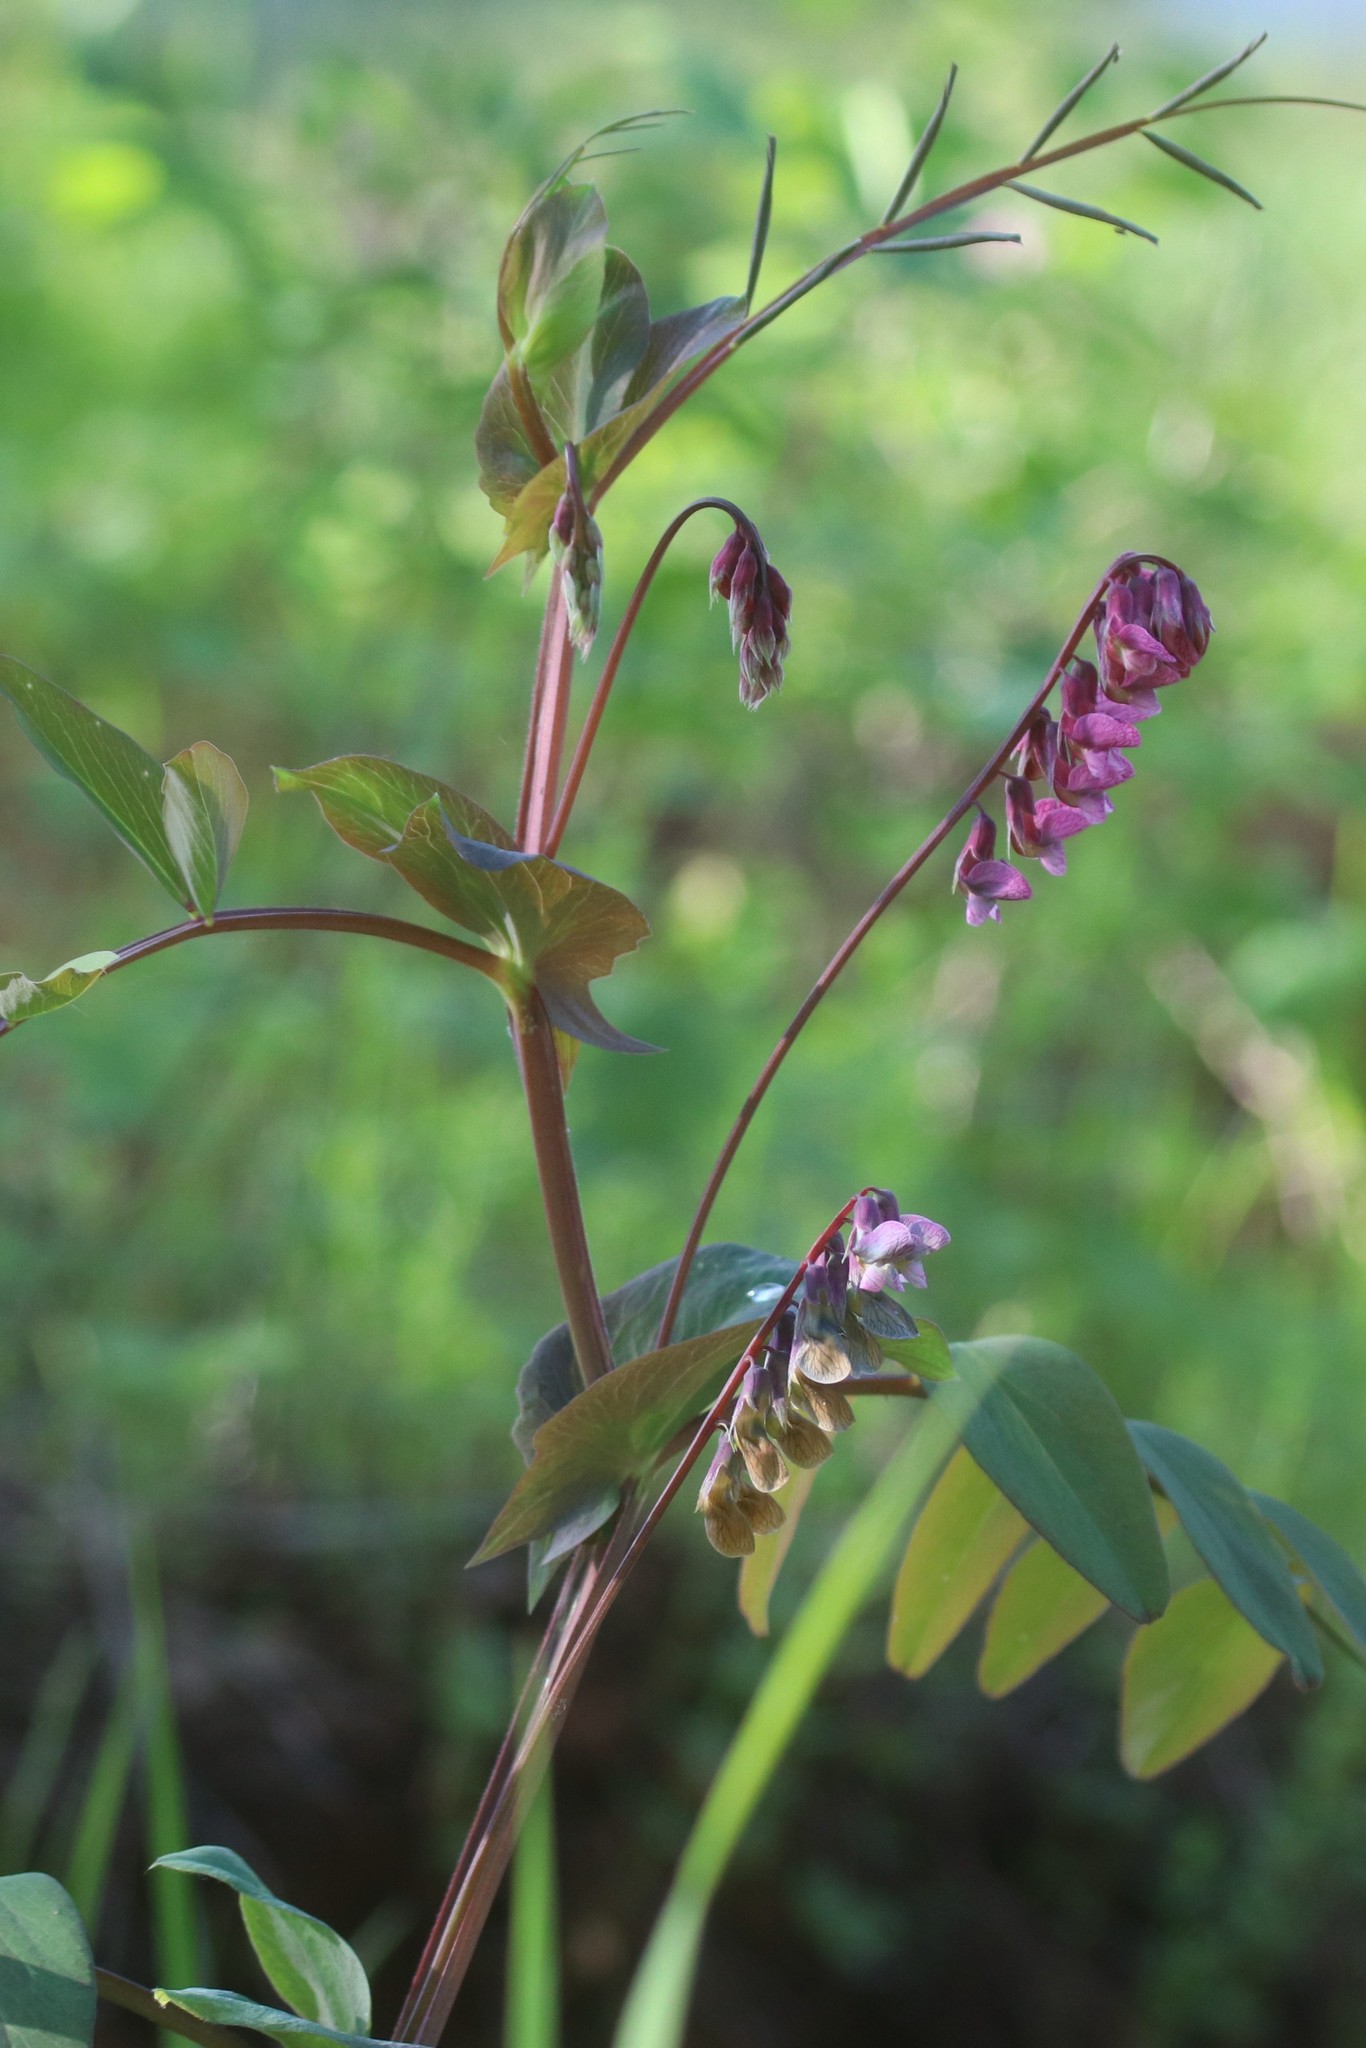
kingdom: Plantae
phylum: Tracheophyta
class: Magnoliopsida
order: Fabales
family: Fabaceae
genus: Lathyrus
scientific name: Lathyrus pisiformis
